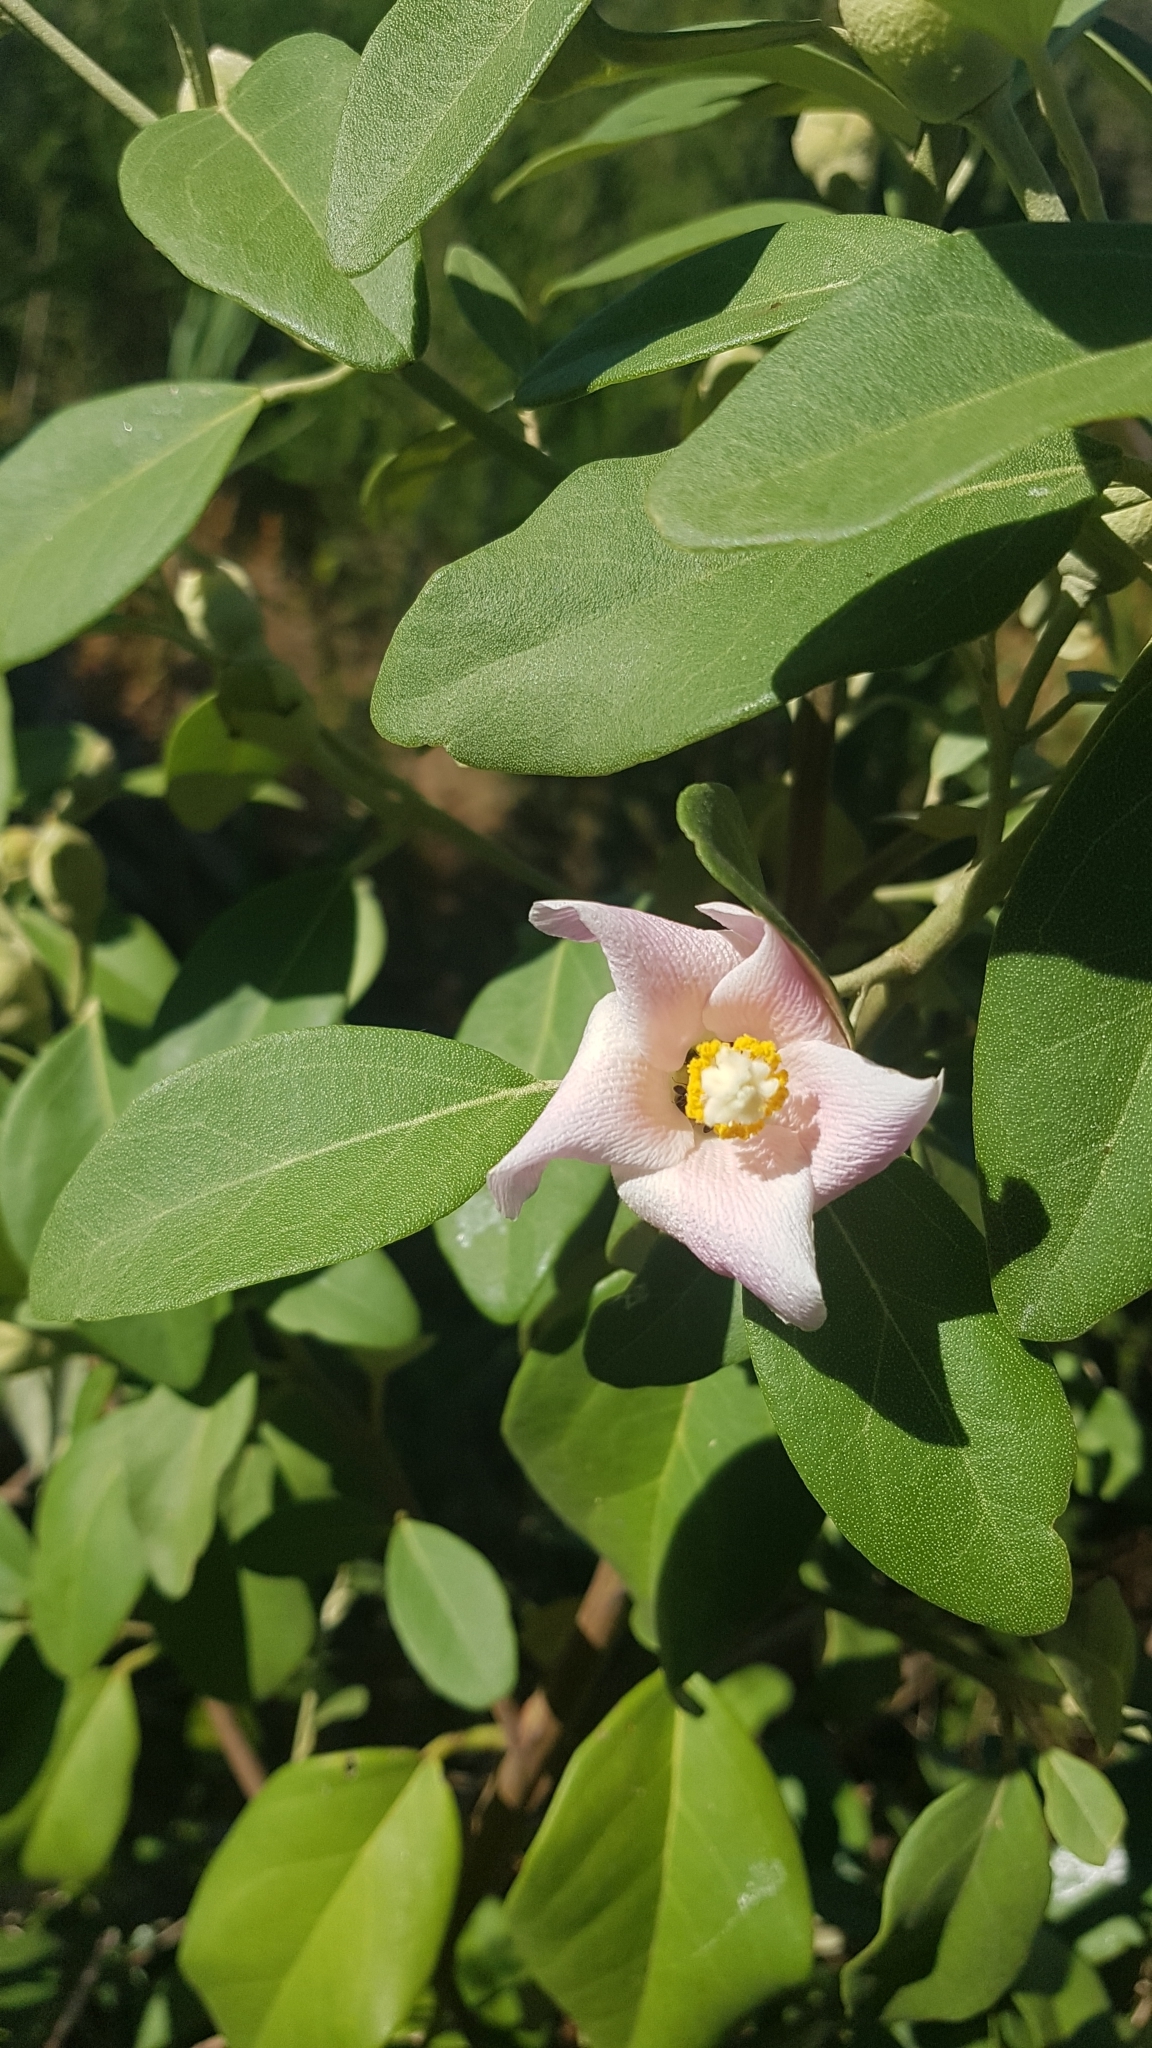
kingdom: Plantae
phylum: Tracheophyta
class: Magnoliopsida
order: Malvales
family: Malvaceae
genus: Lagunaria
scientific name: Lagunaria patersonia
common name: Cow itch tree
